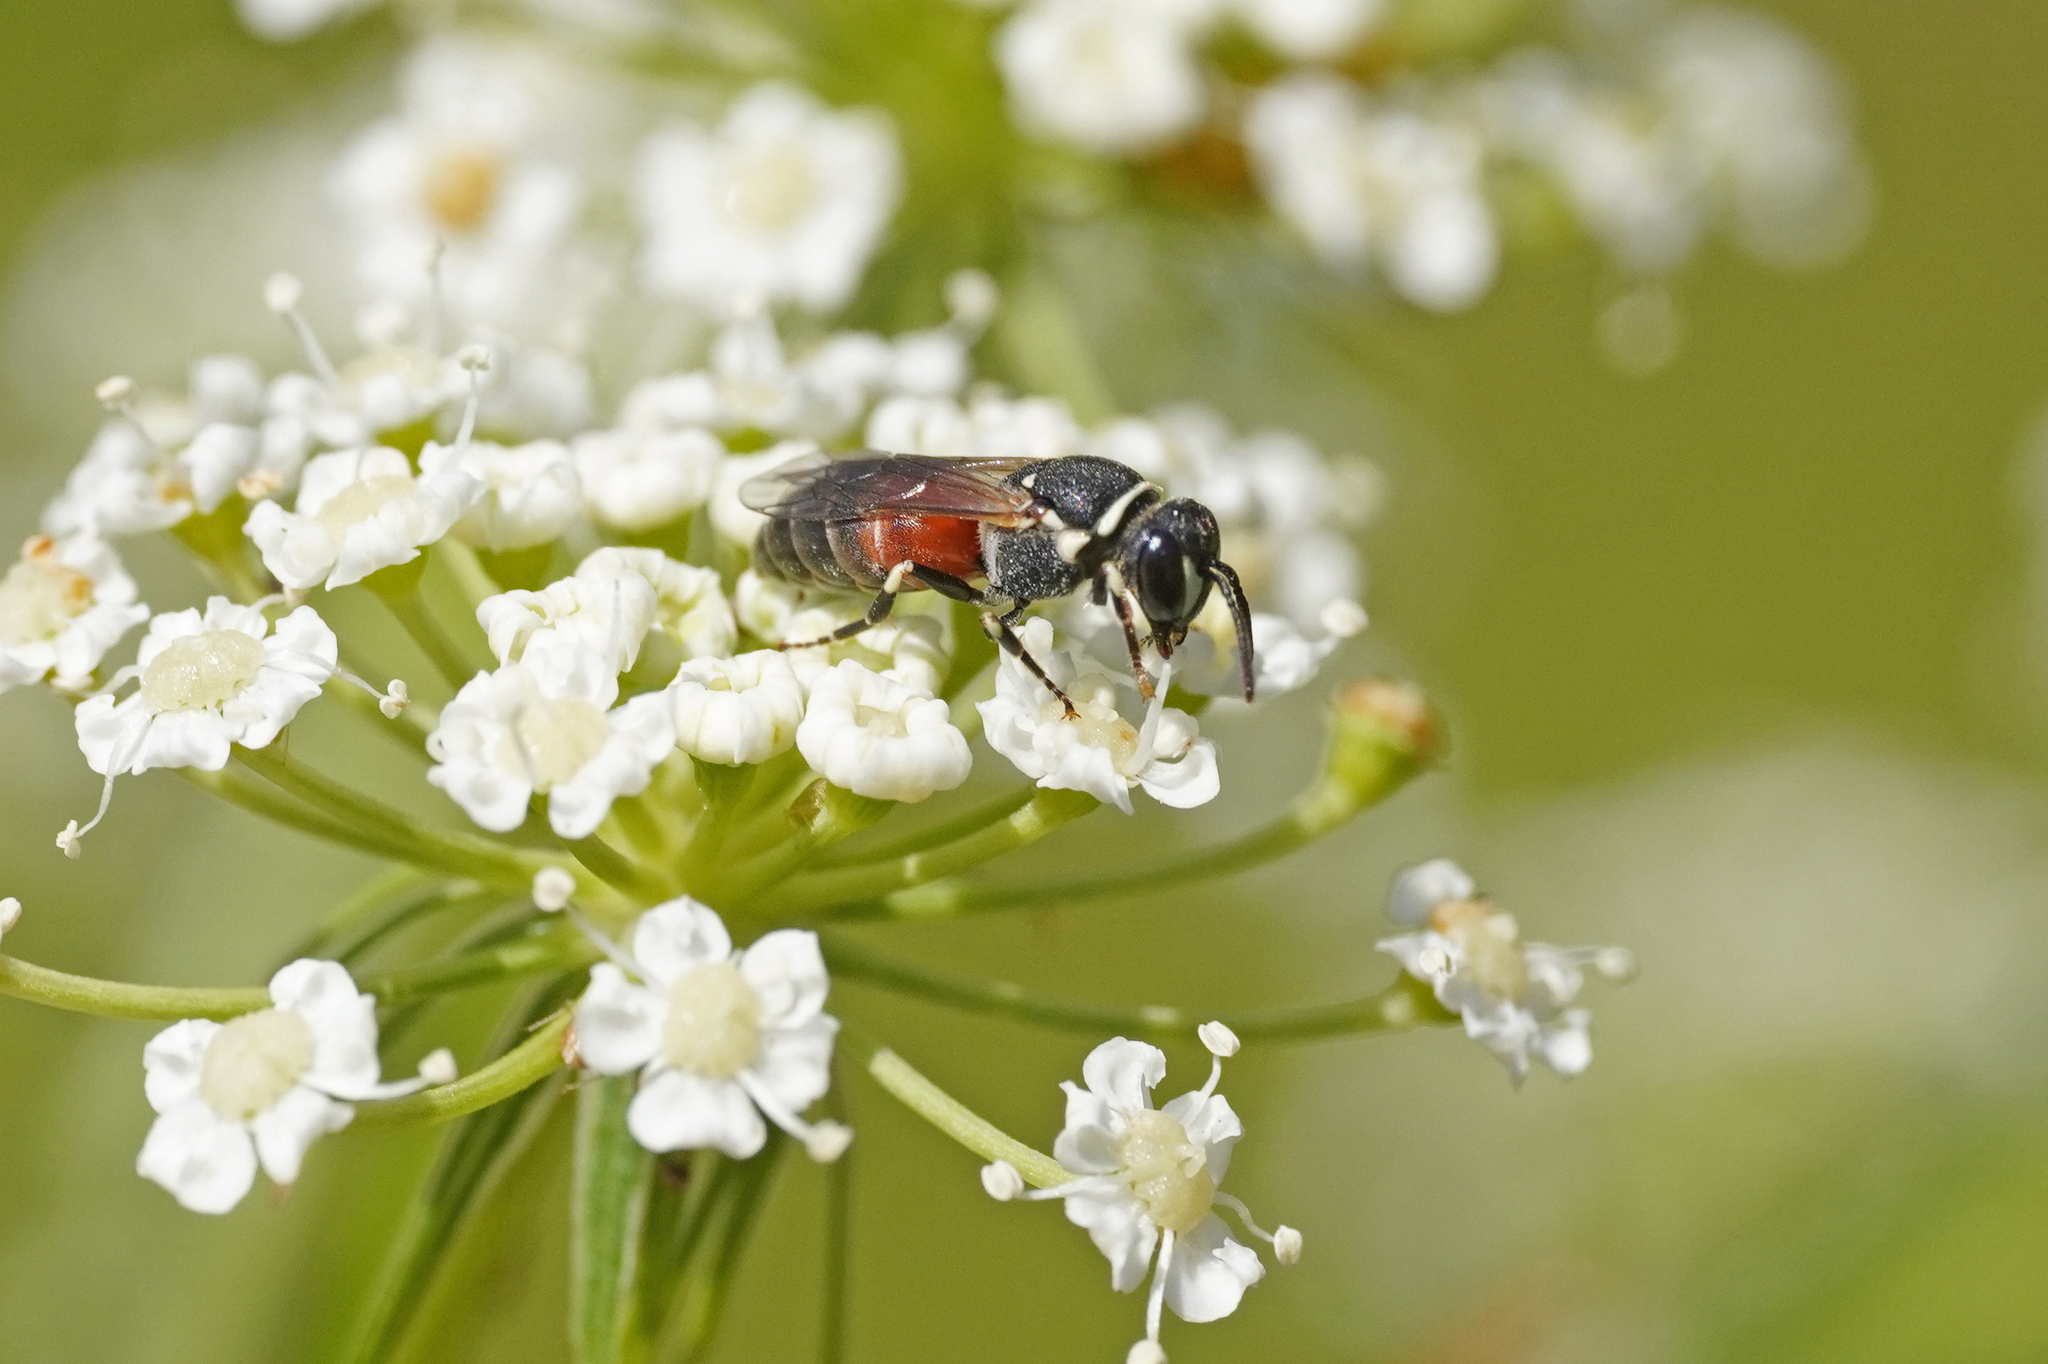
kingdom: Animalia
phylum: Arthropoda
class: Insecta
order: Hymenoptera
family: Colletidae
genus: Hylaeus
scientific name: Hylaeus variegatus
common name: Masked bee
